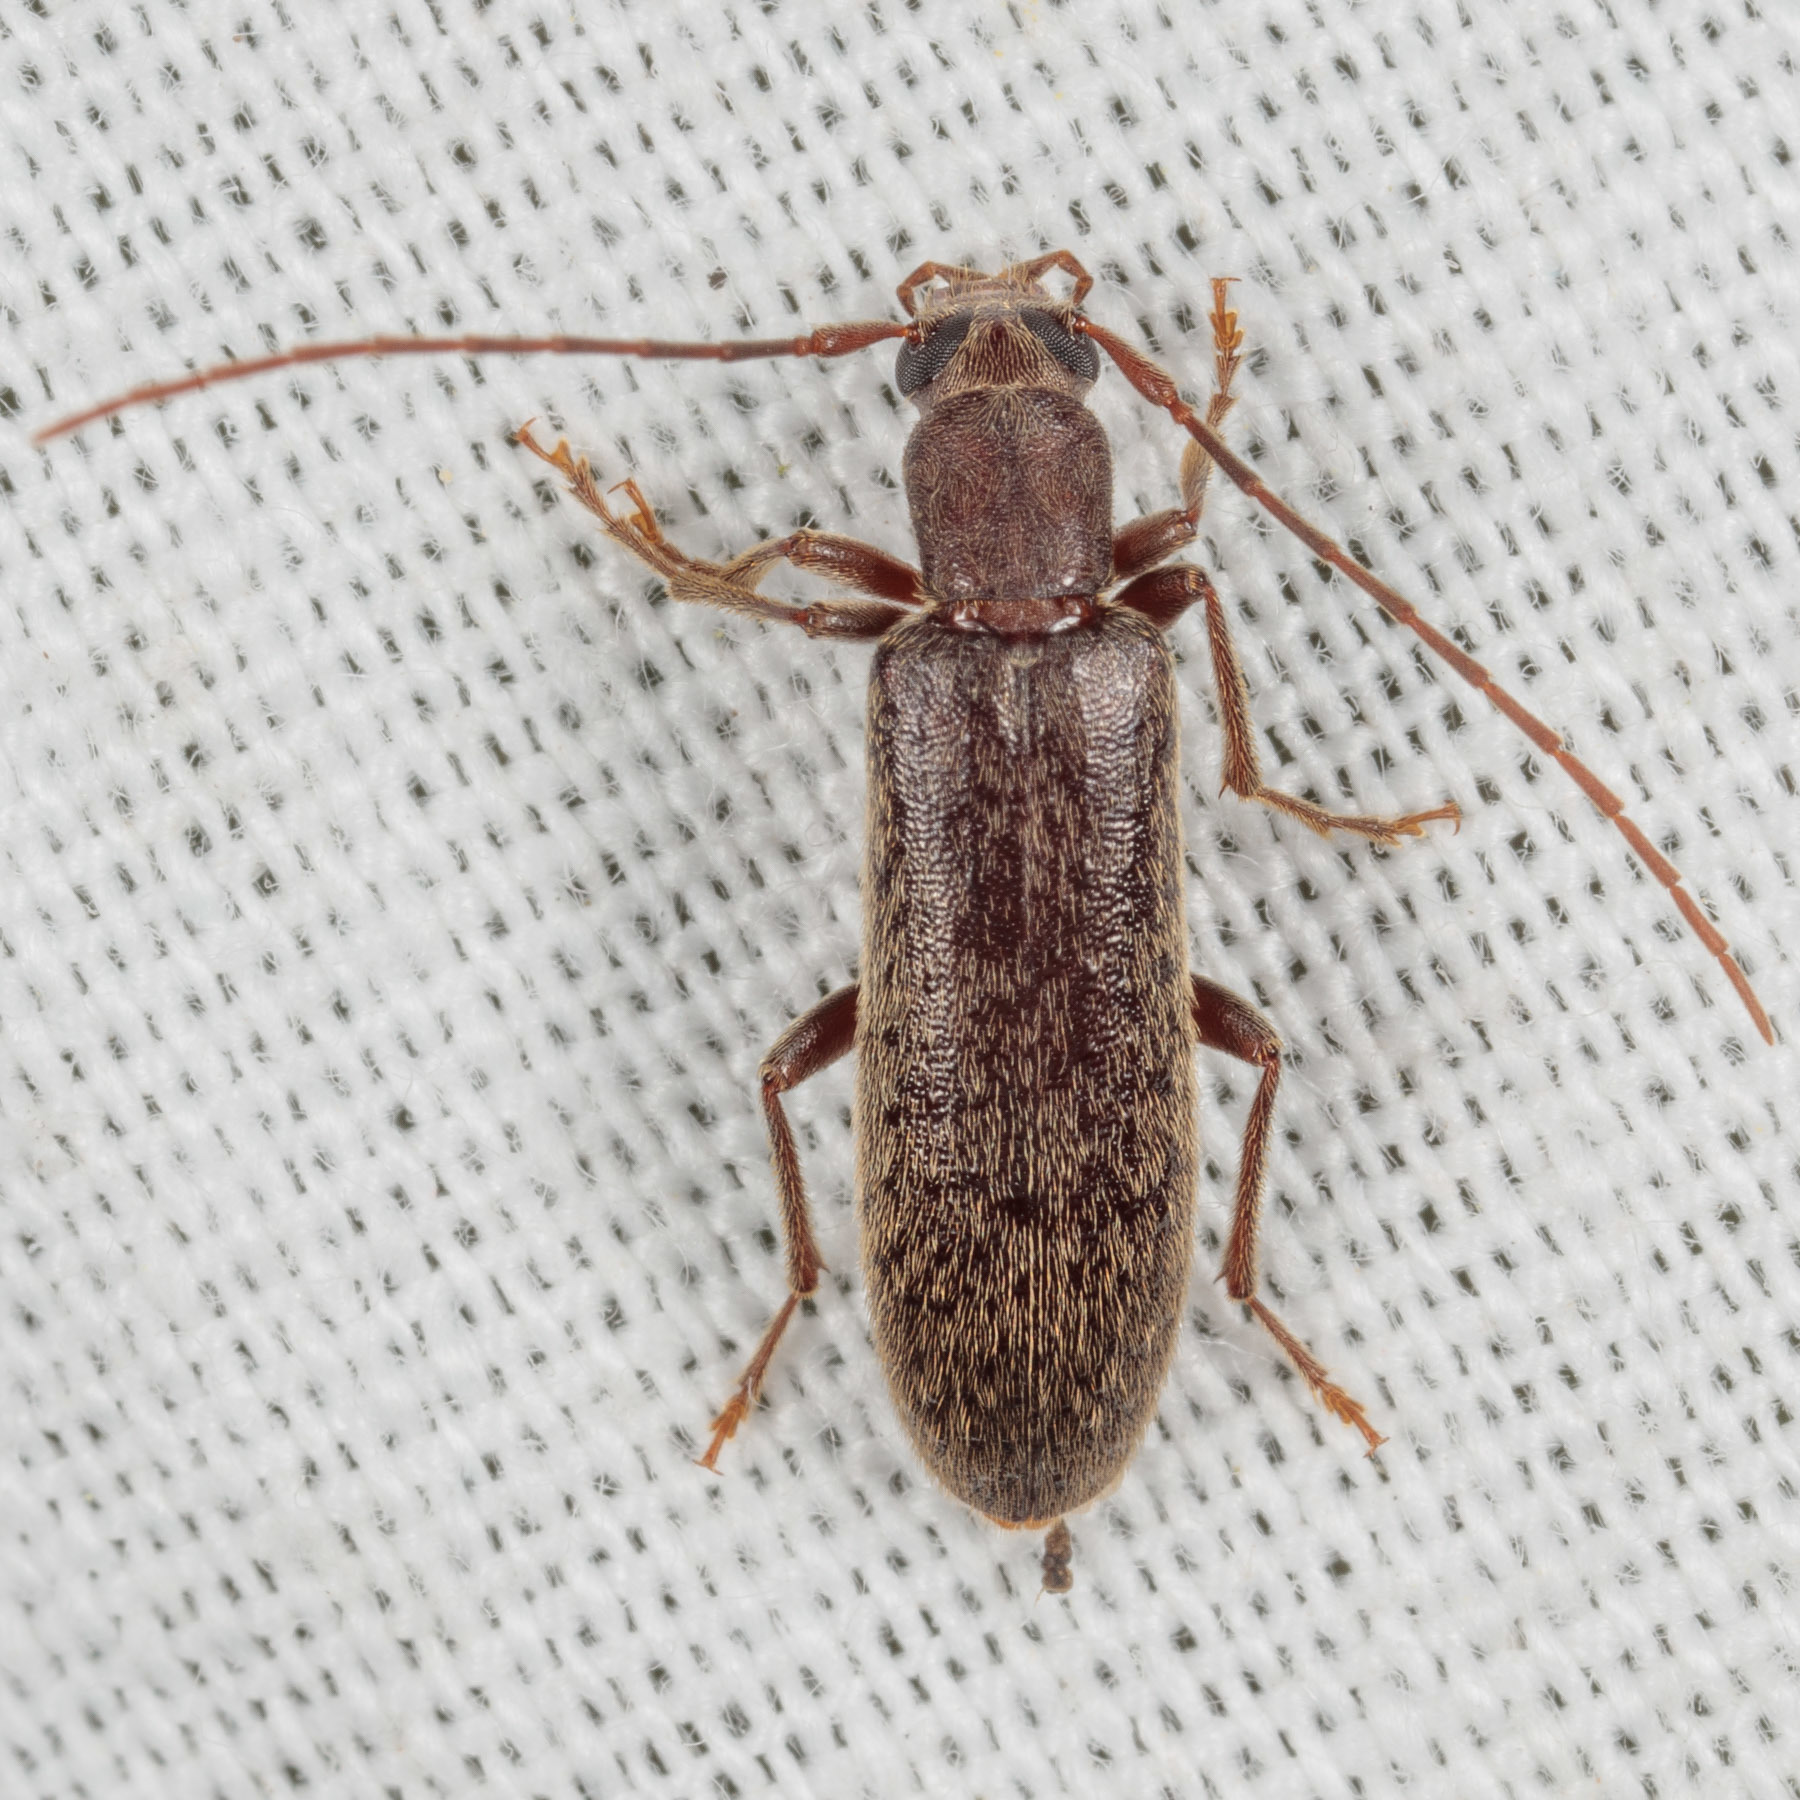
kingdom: Animalia
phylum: Arthropoda
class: Insecta
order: Coleoptera
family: Oedemeridae
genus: Sparedrus
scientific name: Sparedrus aspersus
